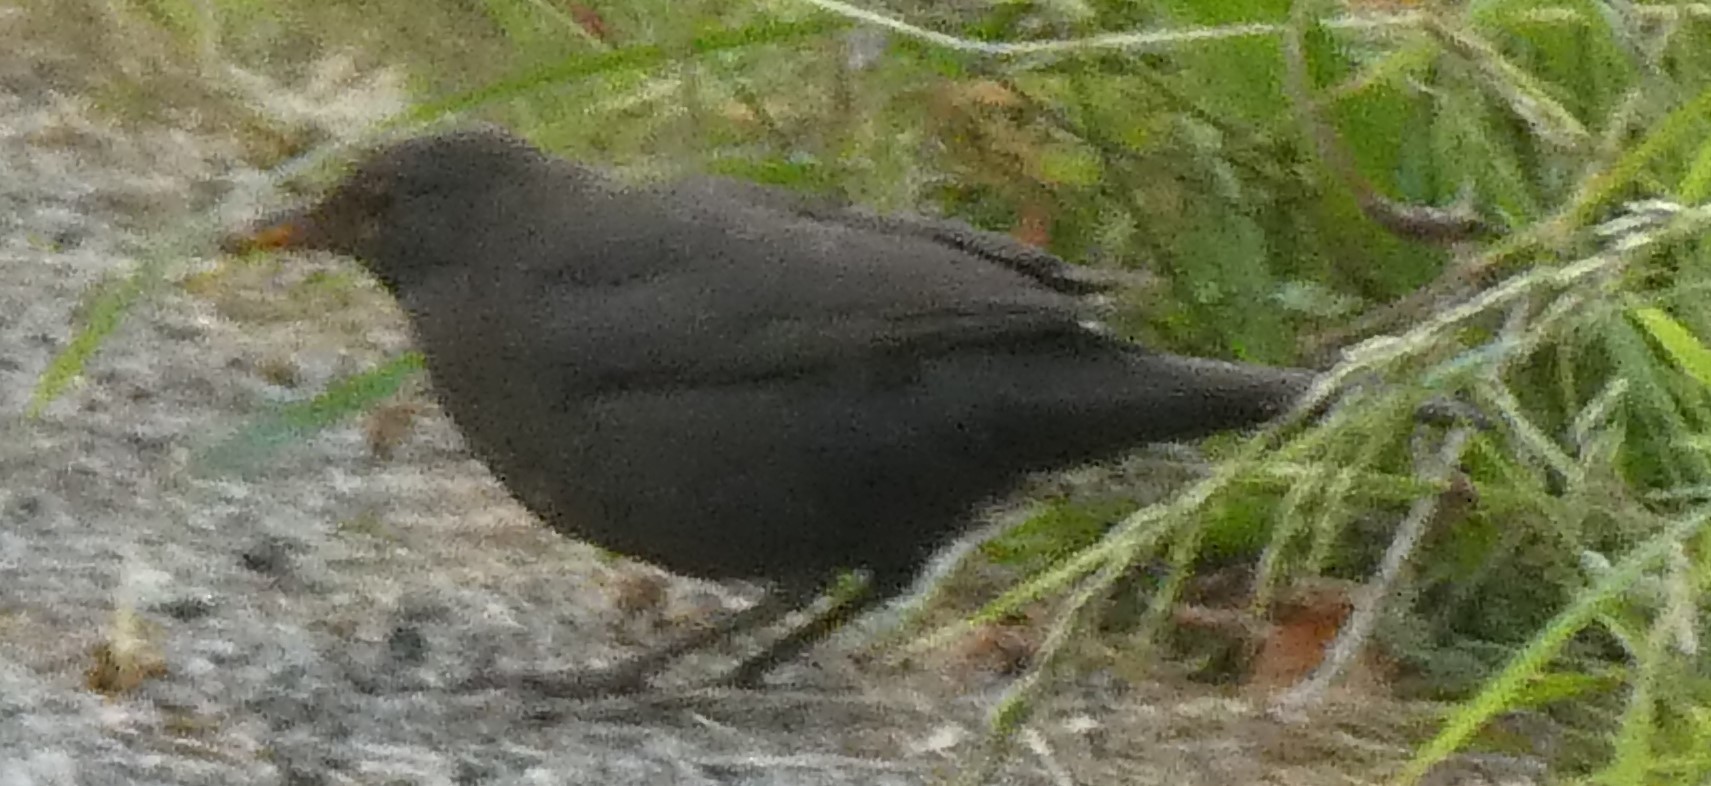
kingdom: Animalia
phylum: Chordata
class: Aves
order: Passeriformes
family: Turdidae
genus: Turdus
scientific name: Turdus merula
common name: Common blackbird
